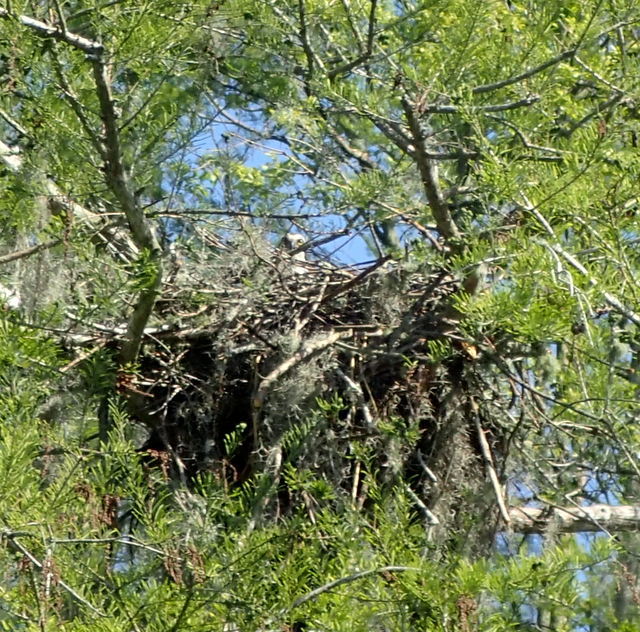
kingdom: Animalia
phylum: Chordata
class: Aves
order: Accipitriformes
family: Pandionidae
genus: Pandion
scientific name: Pandion haliaetus
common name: Osprey
